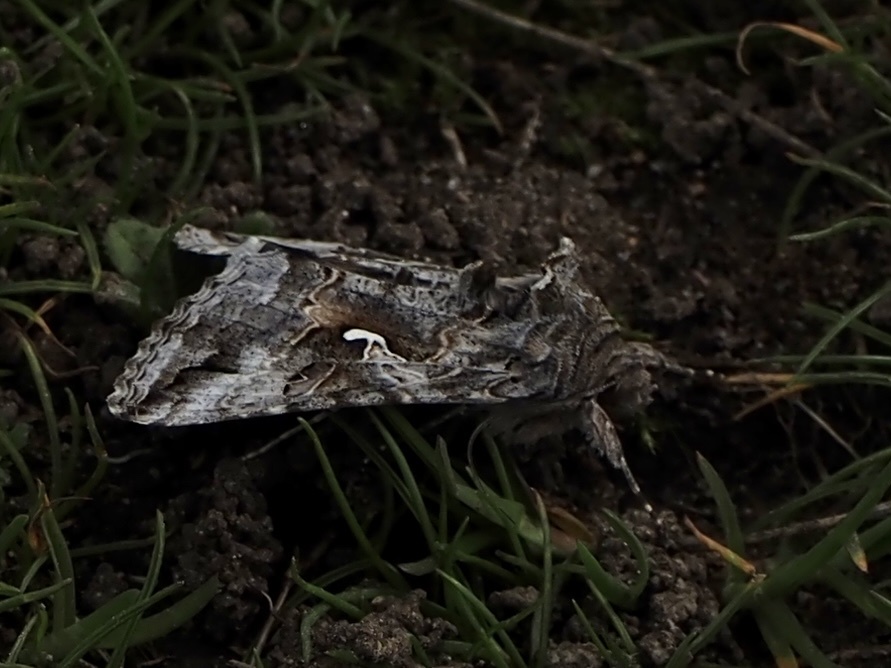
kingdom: Animalia
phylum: Arthropoda
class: Insecta
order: Lepidoptera
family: Noctuidae
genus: Autographa
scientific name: Autographa californica
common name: Alfalfa looper
